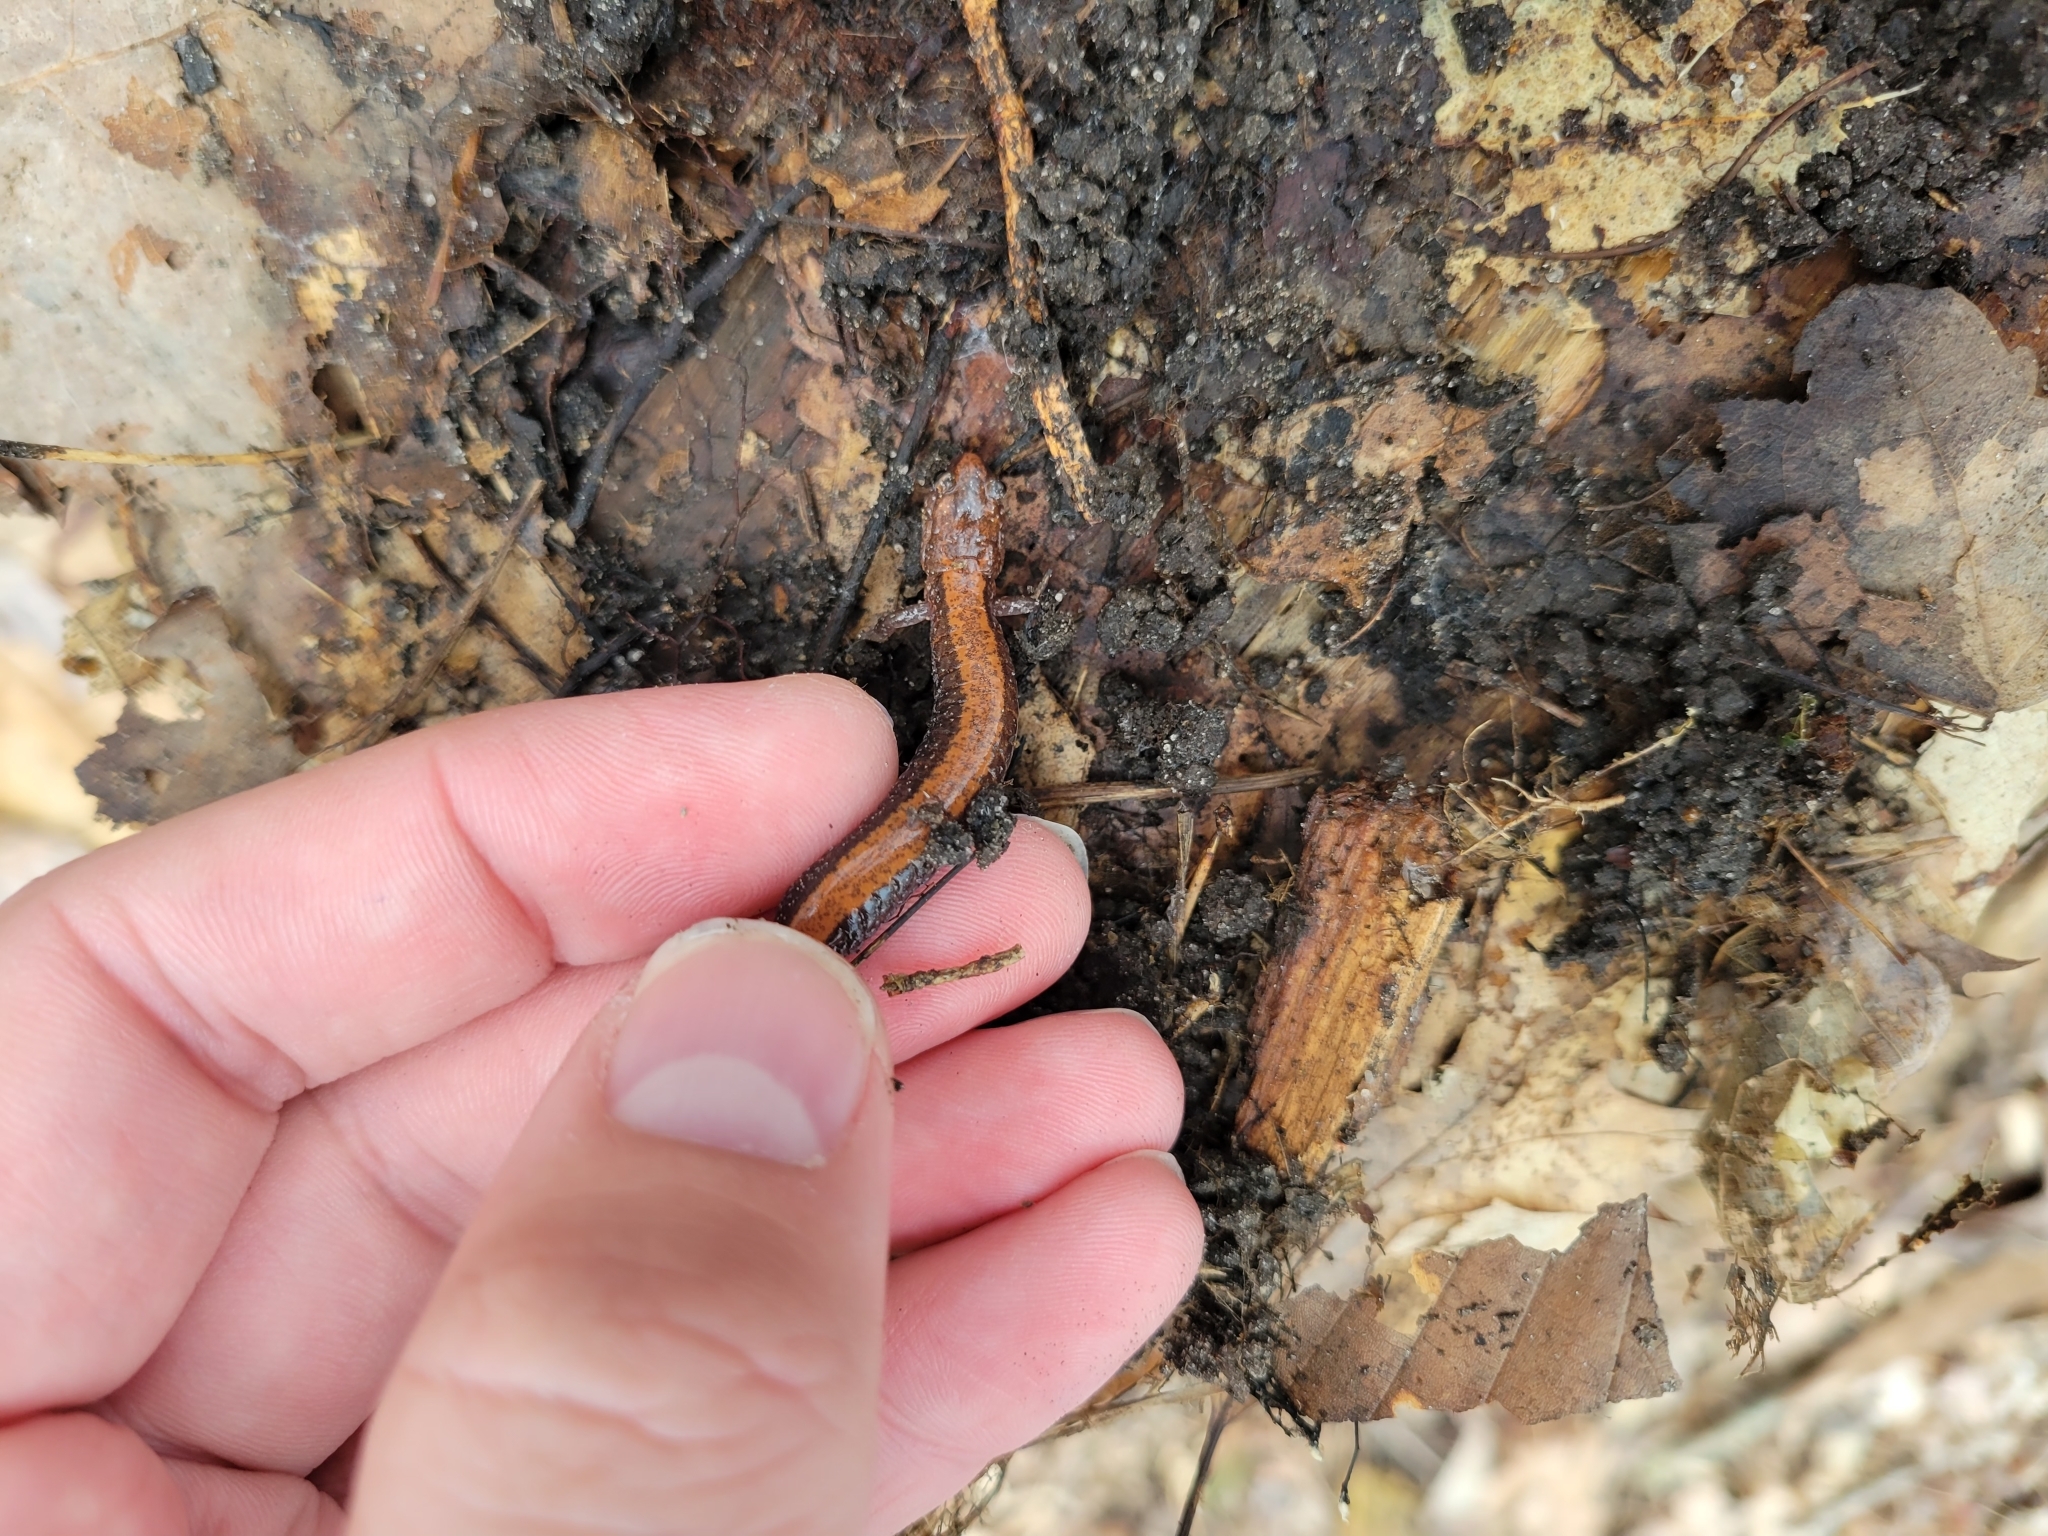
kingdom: Animalia
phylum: Chordata
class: Amphibia
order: Caudata
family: Plethodontidae
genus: Plethodon
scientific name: Plethodon cinereus
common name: Redback salamander
